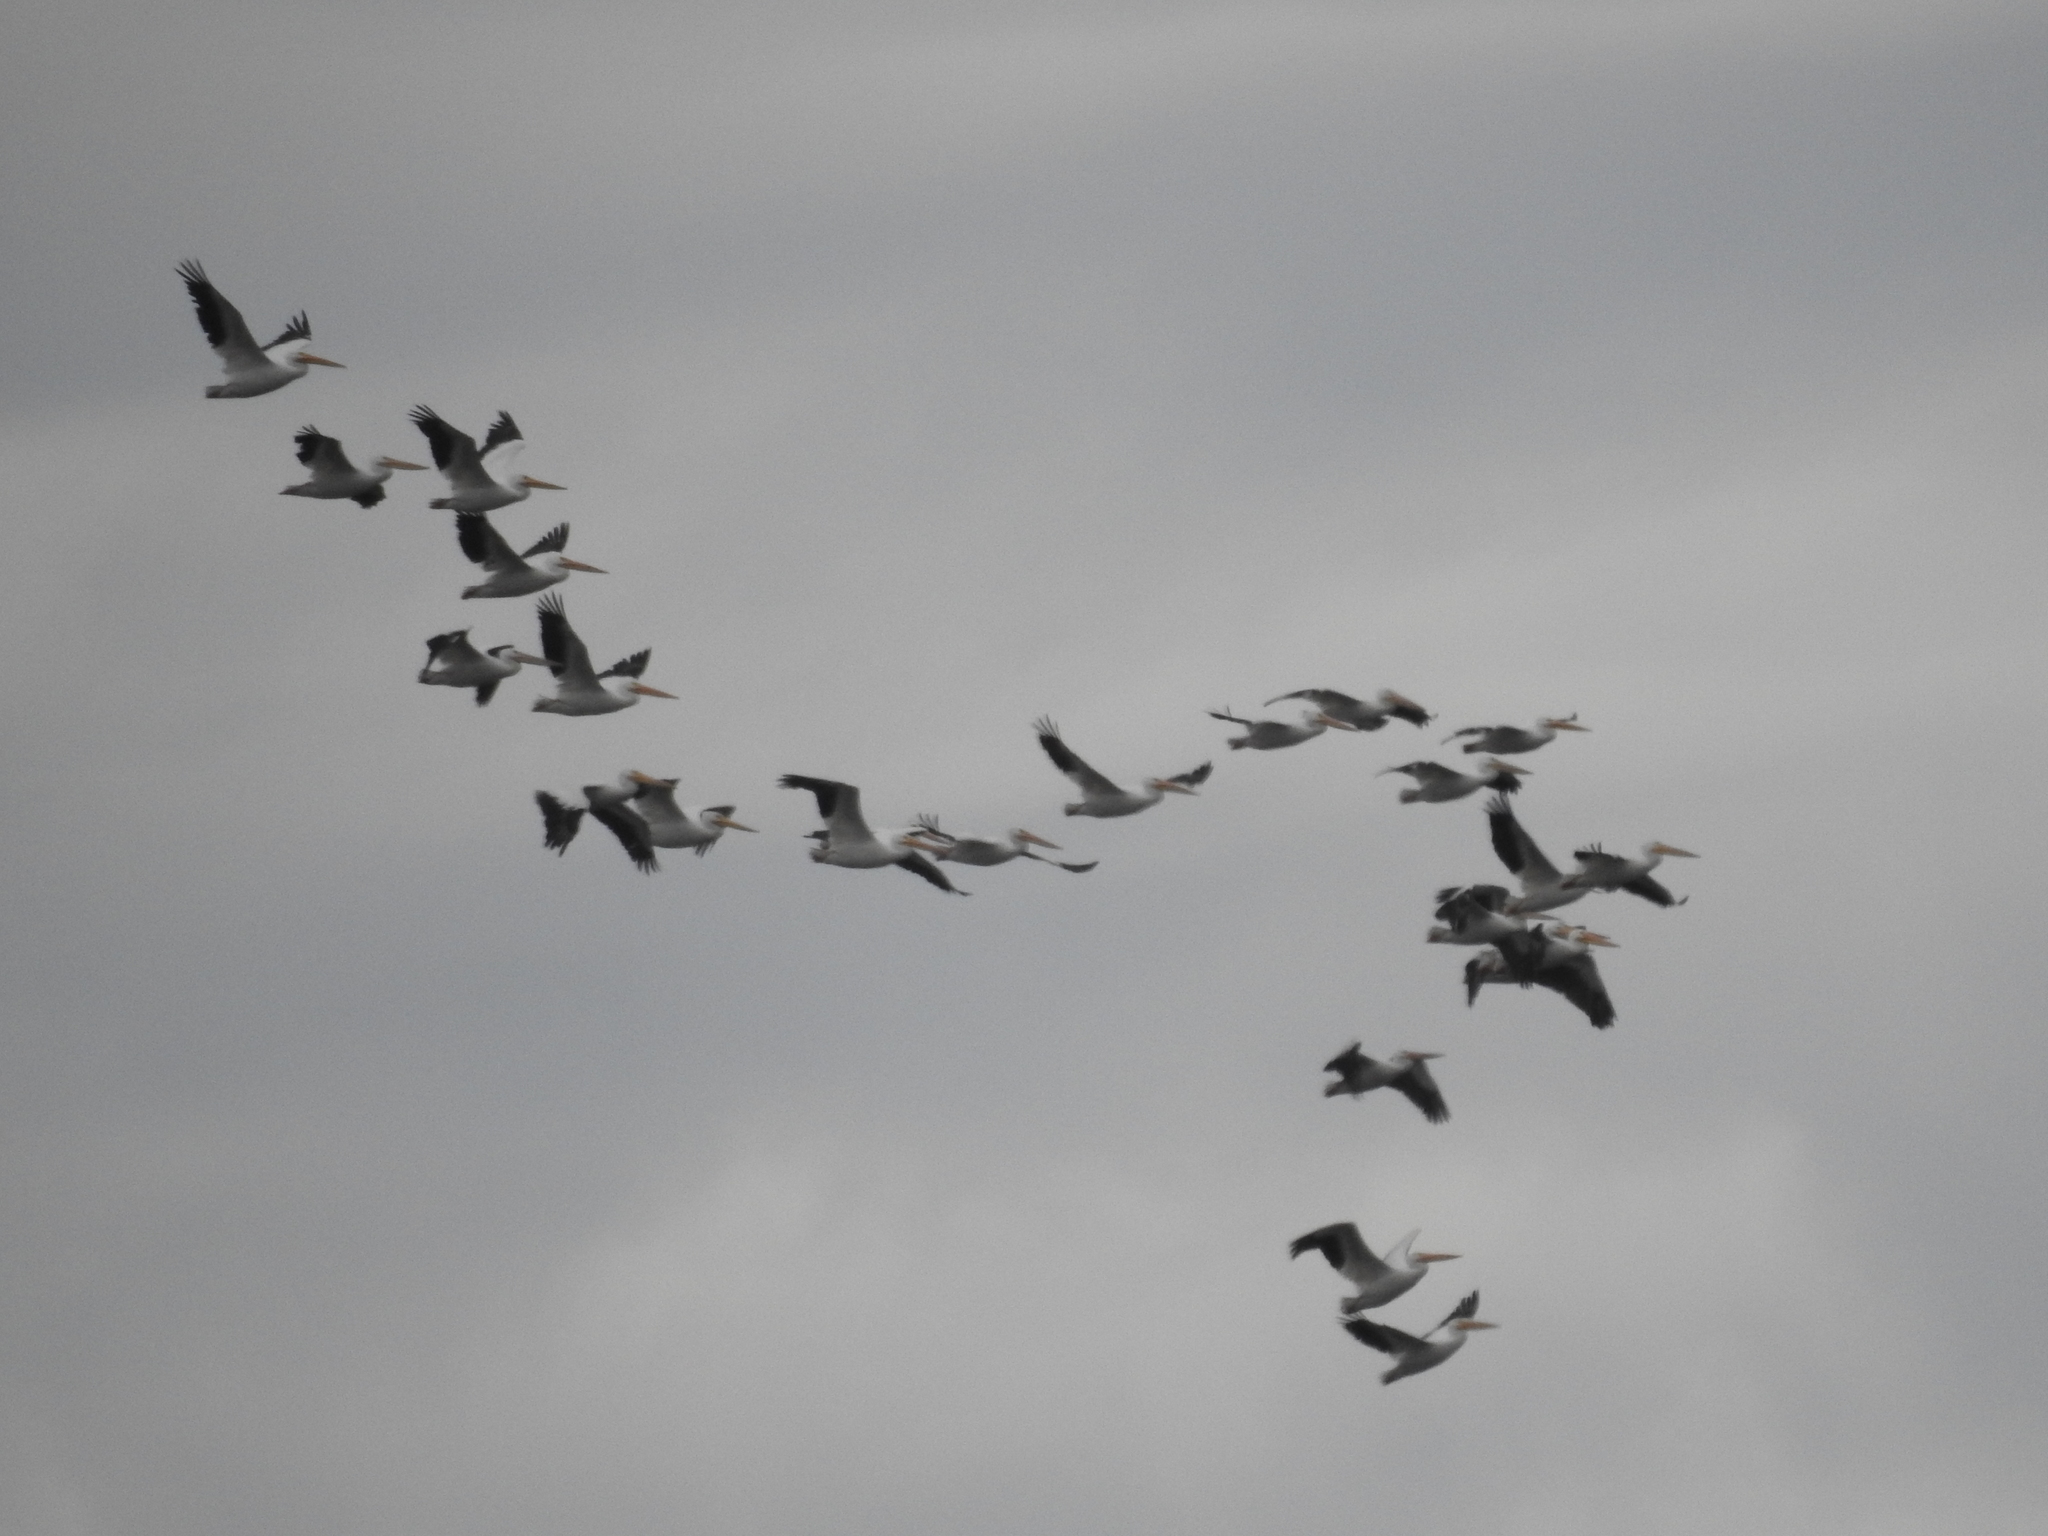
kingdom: Animalia
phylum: Chordata
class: Aves
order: Pelecaniformes
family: Pelecanidae
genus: Pelecanus
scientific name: Pelecanus erythrorhynchos
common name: American white pelican
